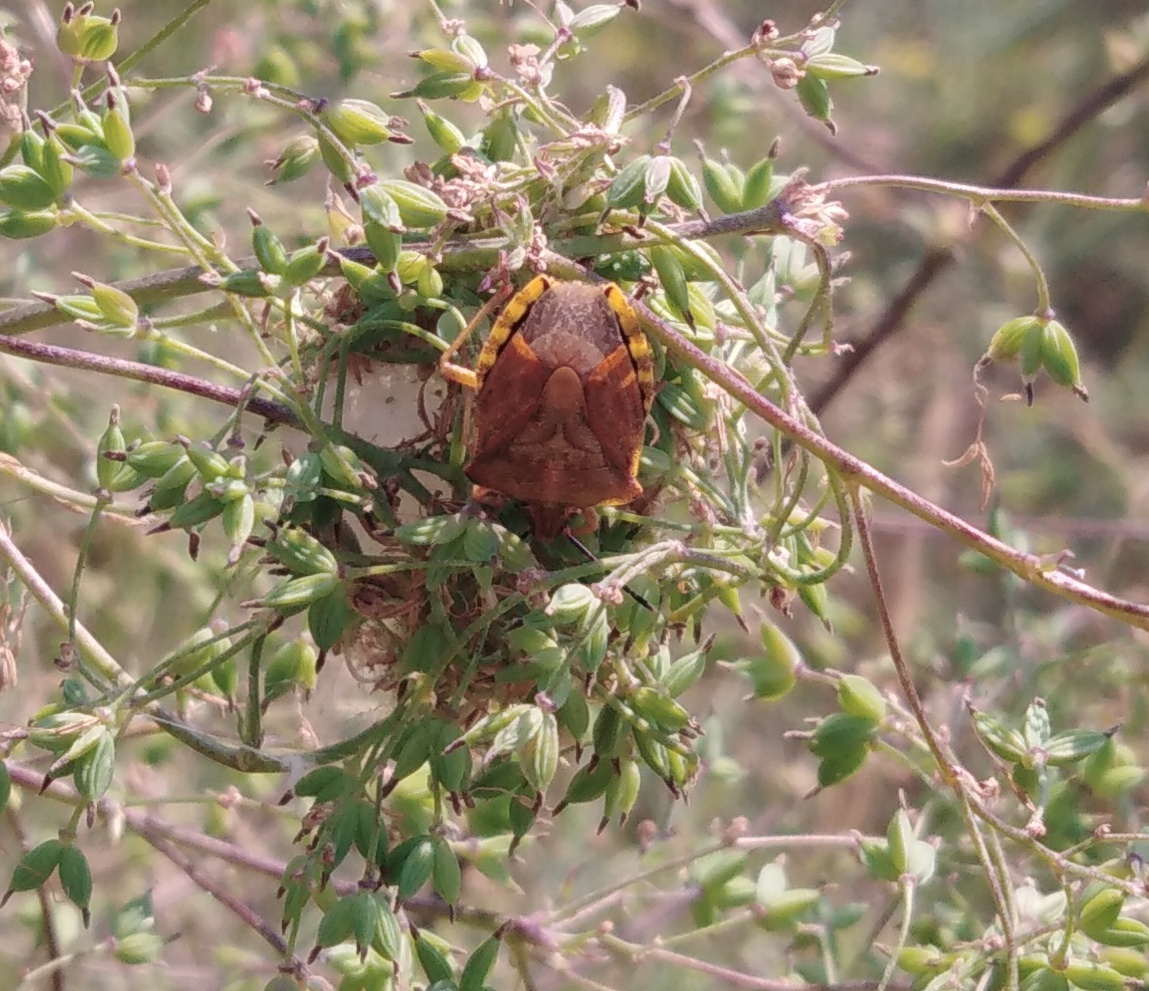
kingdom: Animalia
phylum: Arthropoda
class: Insecta
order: Hemiptera
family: Pentatomidae
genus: Carpocoris
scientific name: Carpocoris purpureipennis
